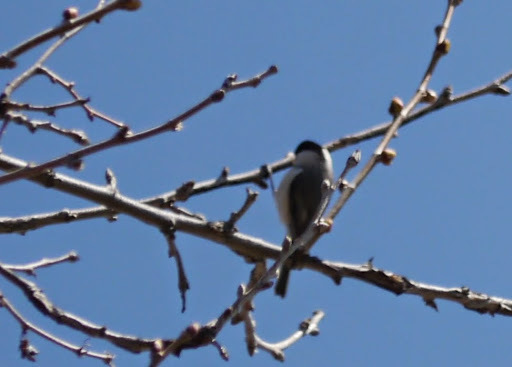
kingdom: Animalia
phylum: Chordata
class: Aves
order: Passeriformes
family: Paridae
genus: Poecile
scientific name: Poecile carolinensis
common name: Carolina chickadee
